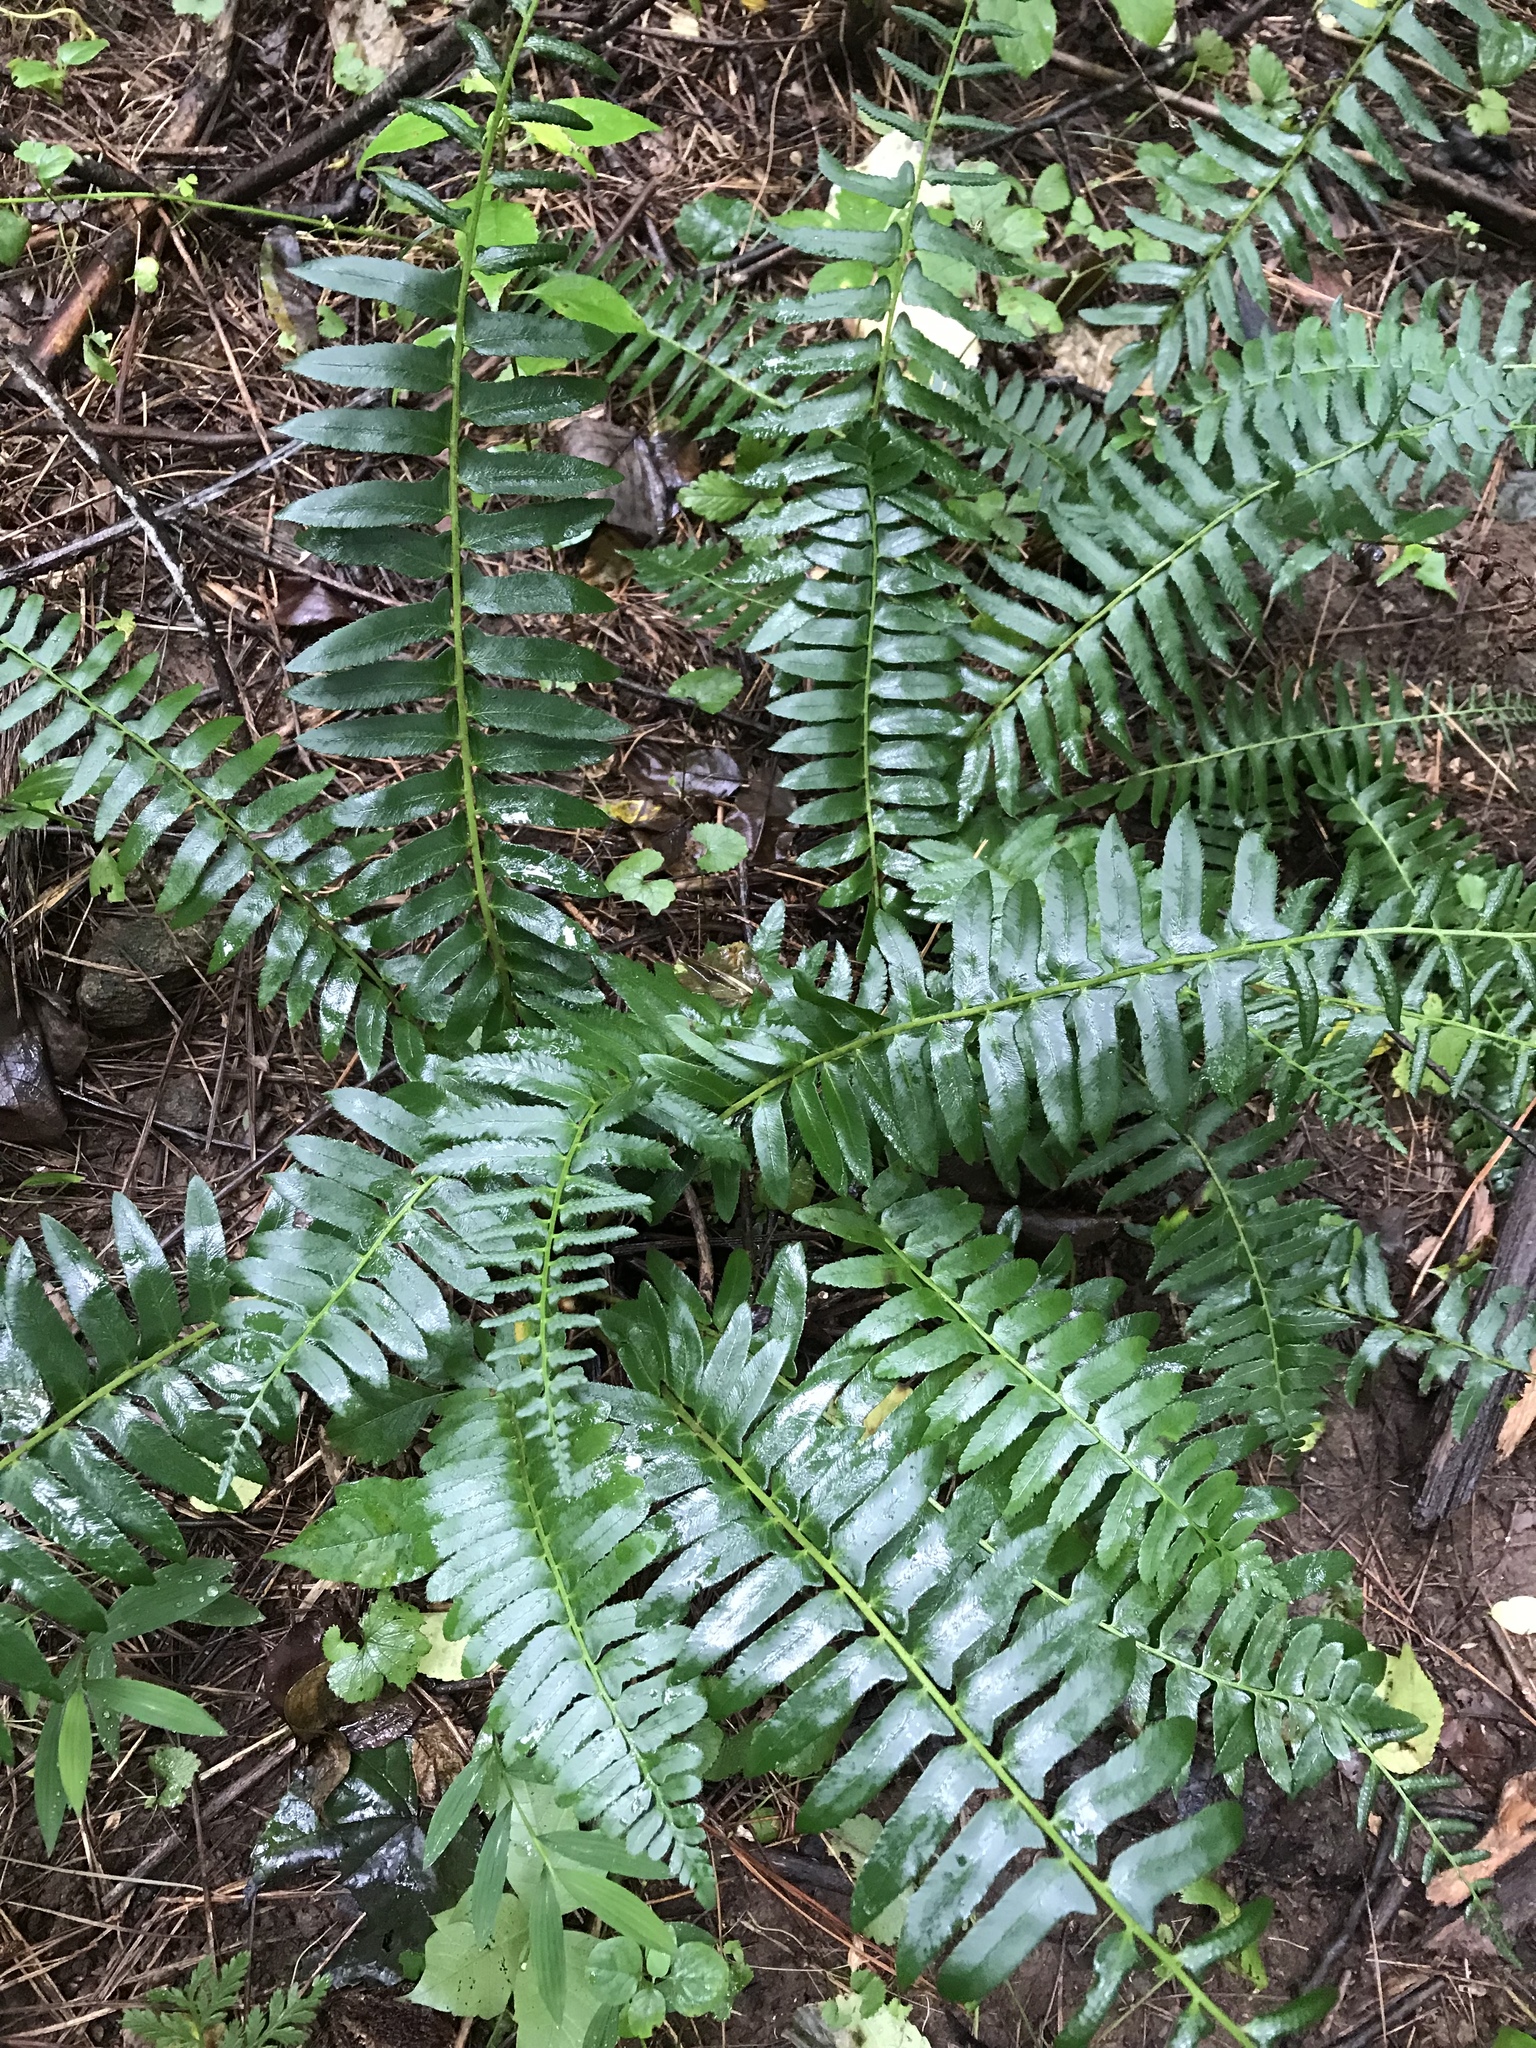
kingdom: Plantae
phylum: Tracheophyta
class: Polypodiopsida
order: Polypodiales
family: Dryopteridaceae
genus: Polystichum
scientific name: Polystichum acrostichoides
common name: Christmas fern
